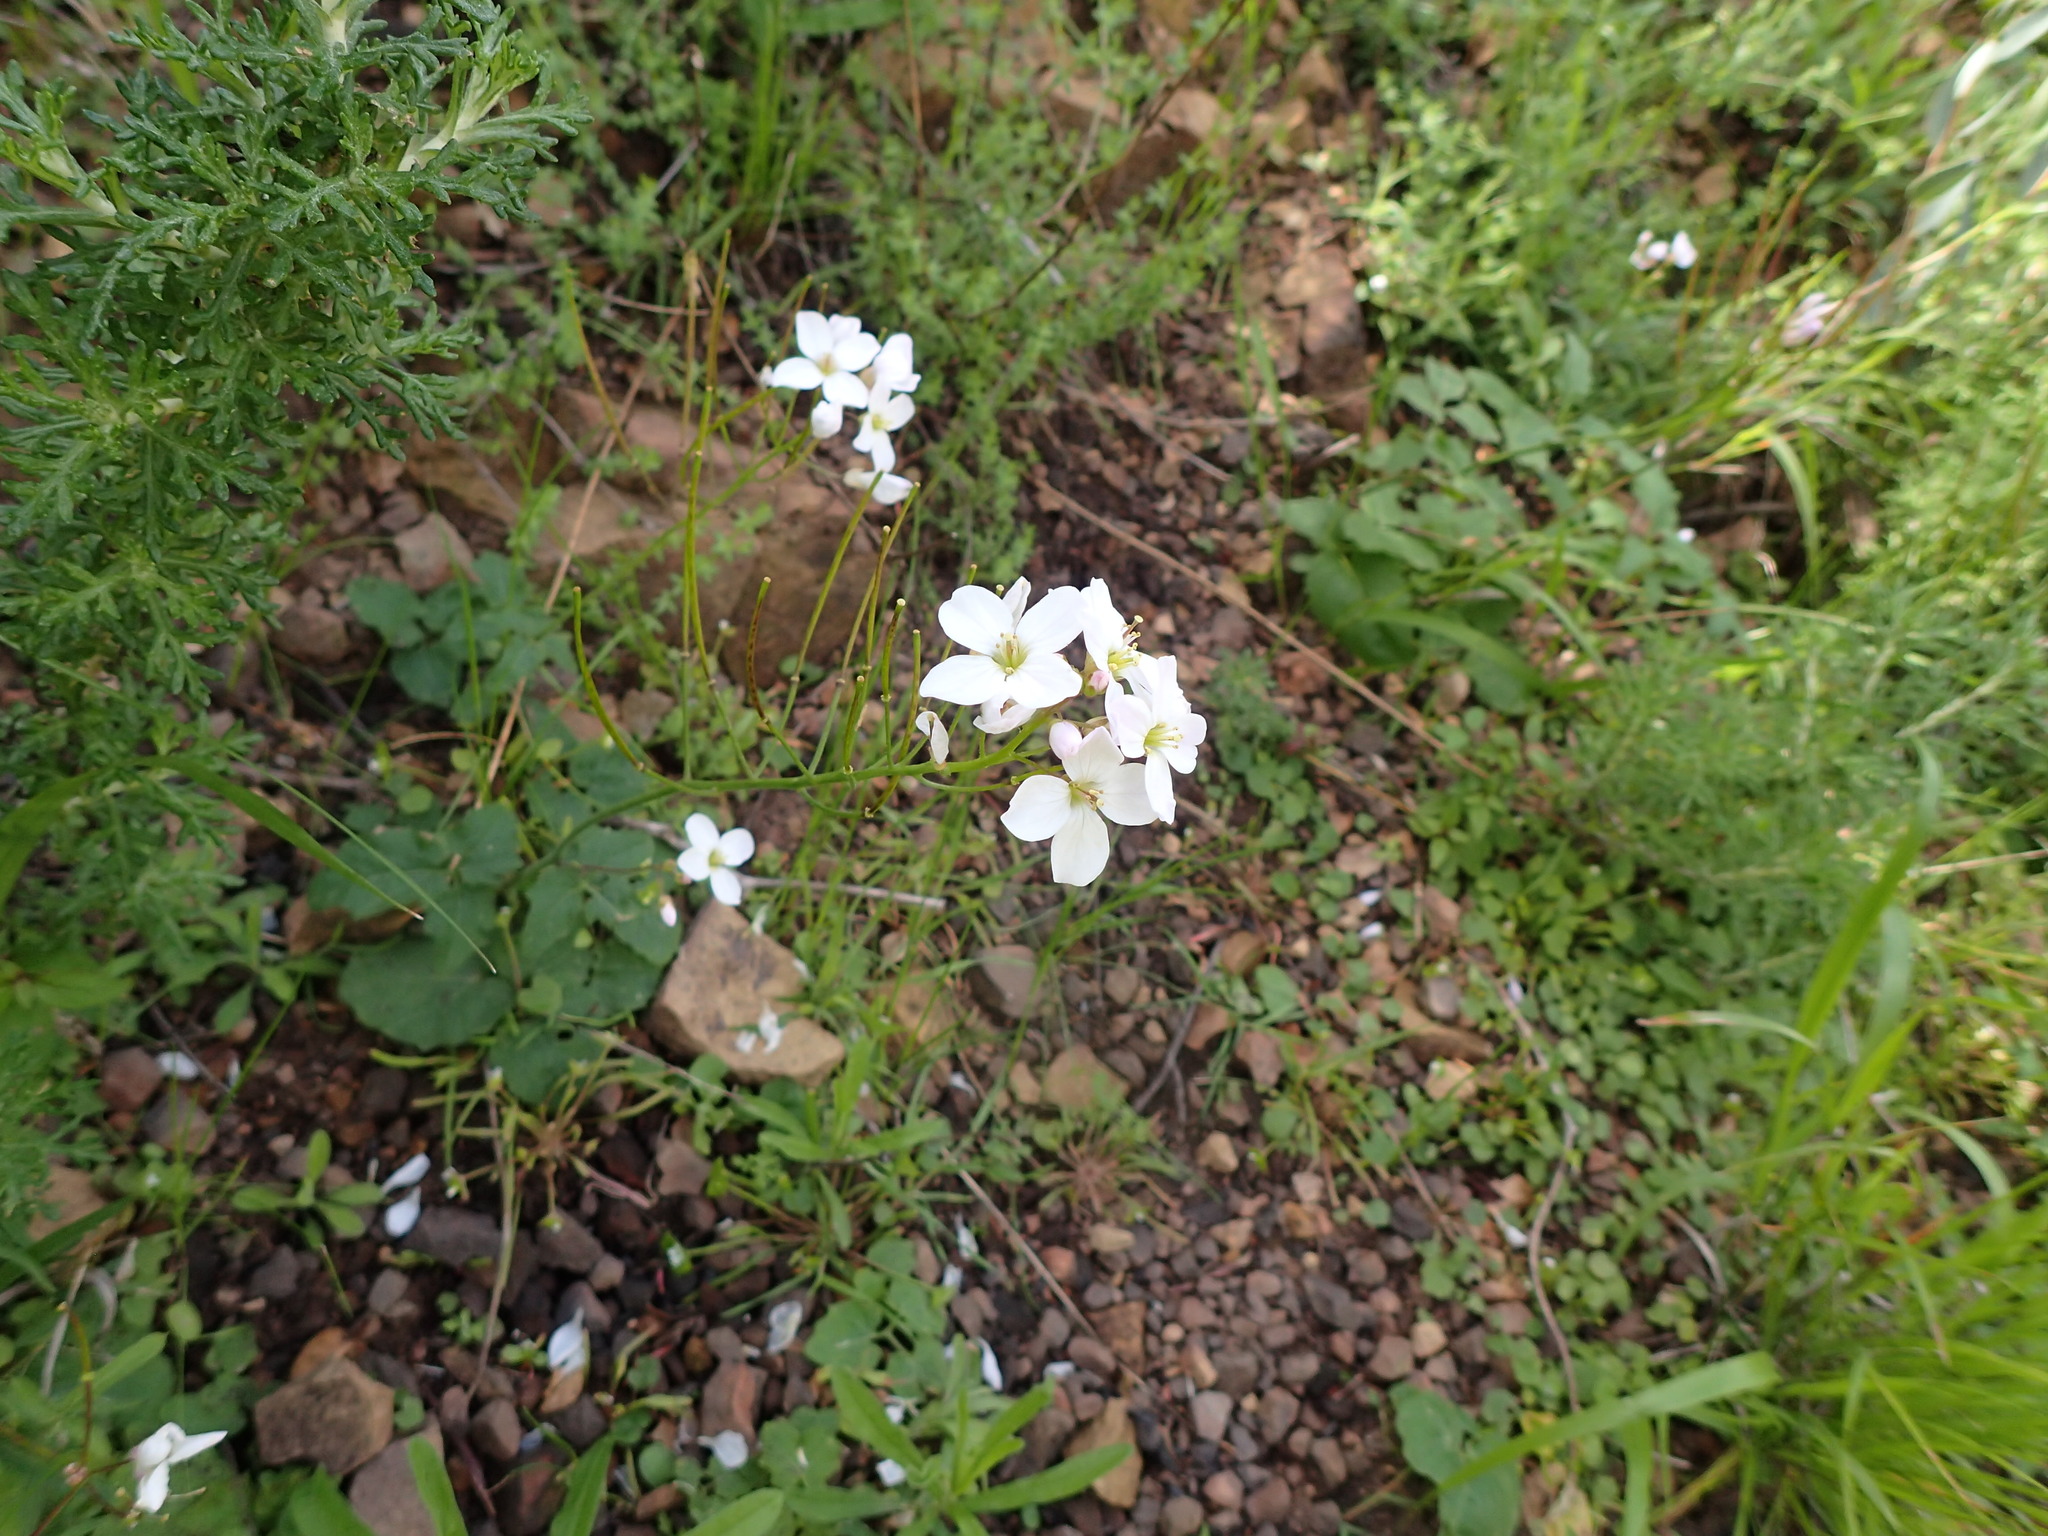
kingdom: Plantae
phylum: Tracheophyta
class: Magnoliopsida
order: Brassicales
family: Brassicaceae
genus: Cardamine
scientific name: Cardamine californica
